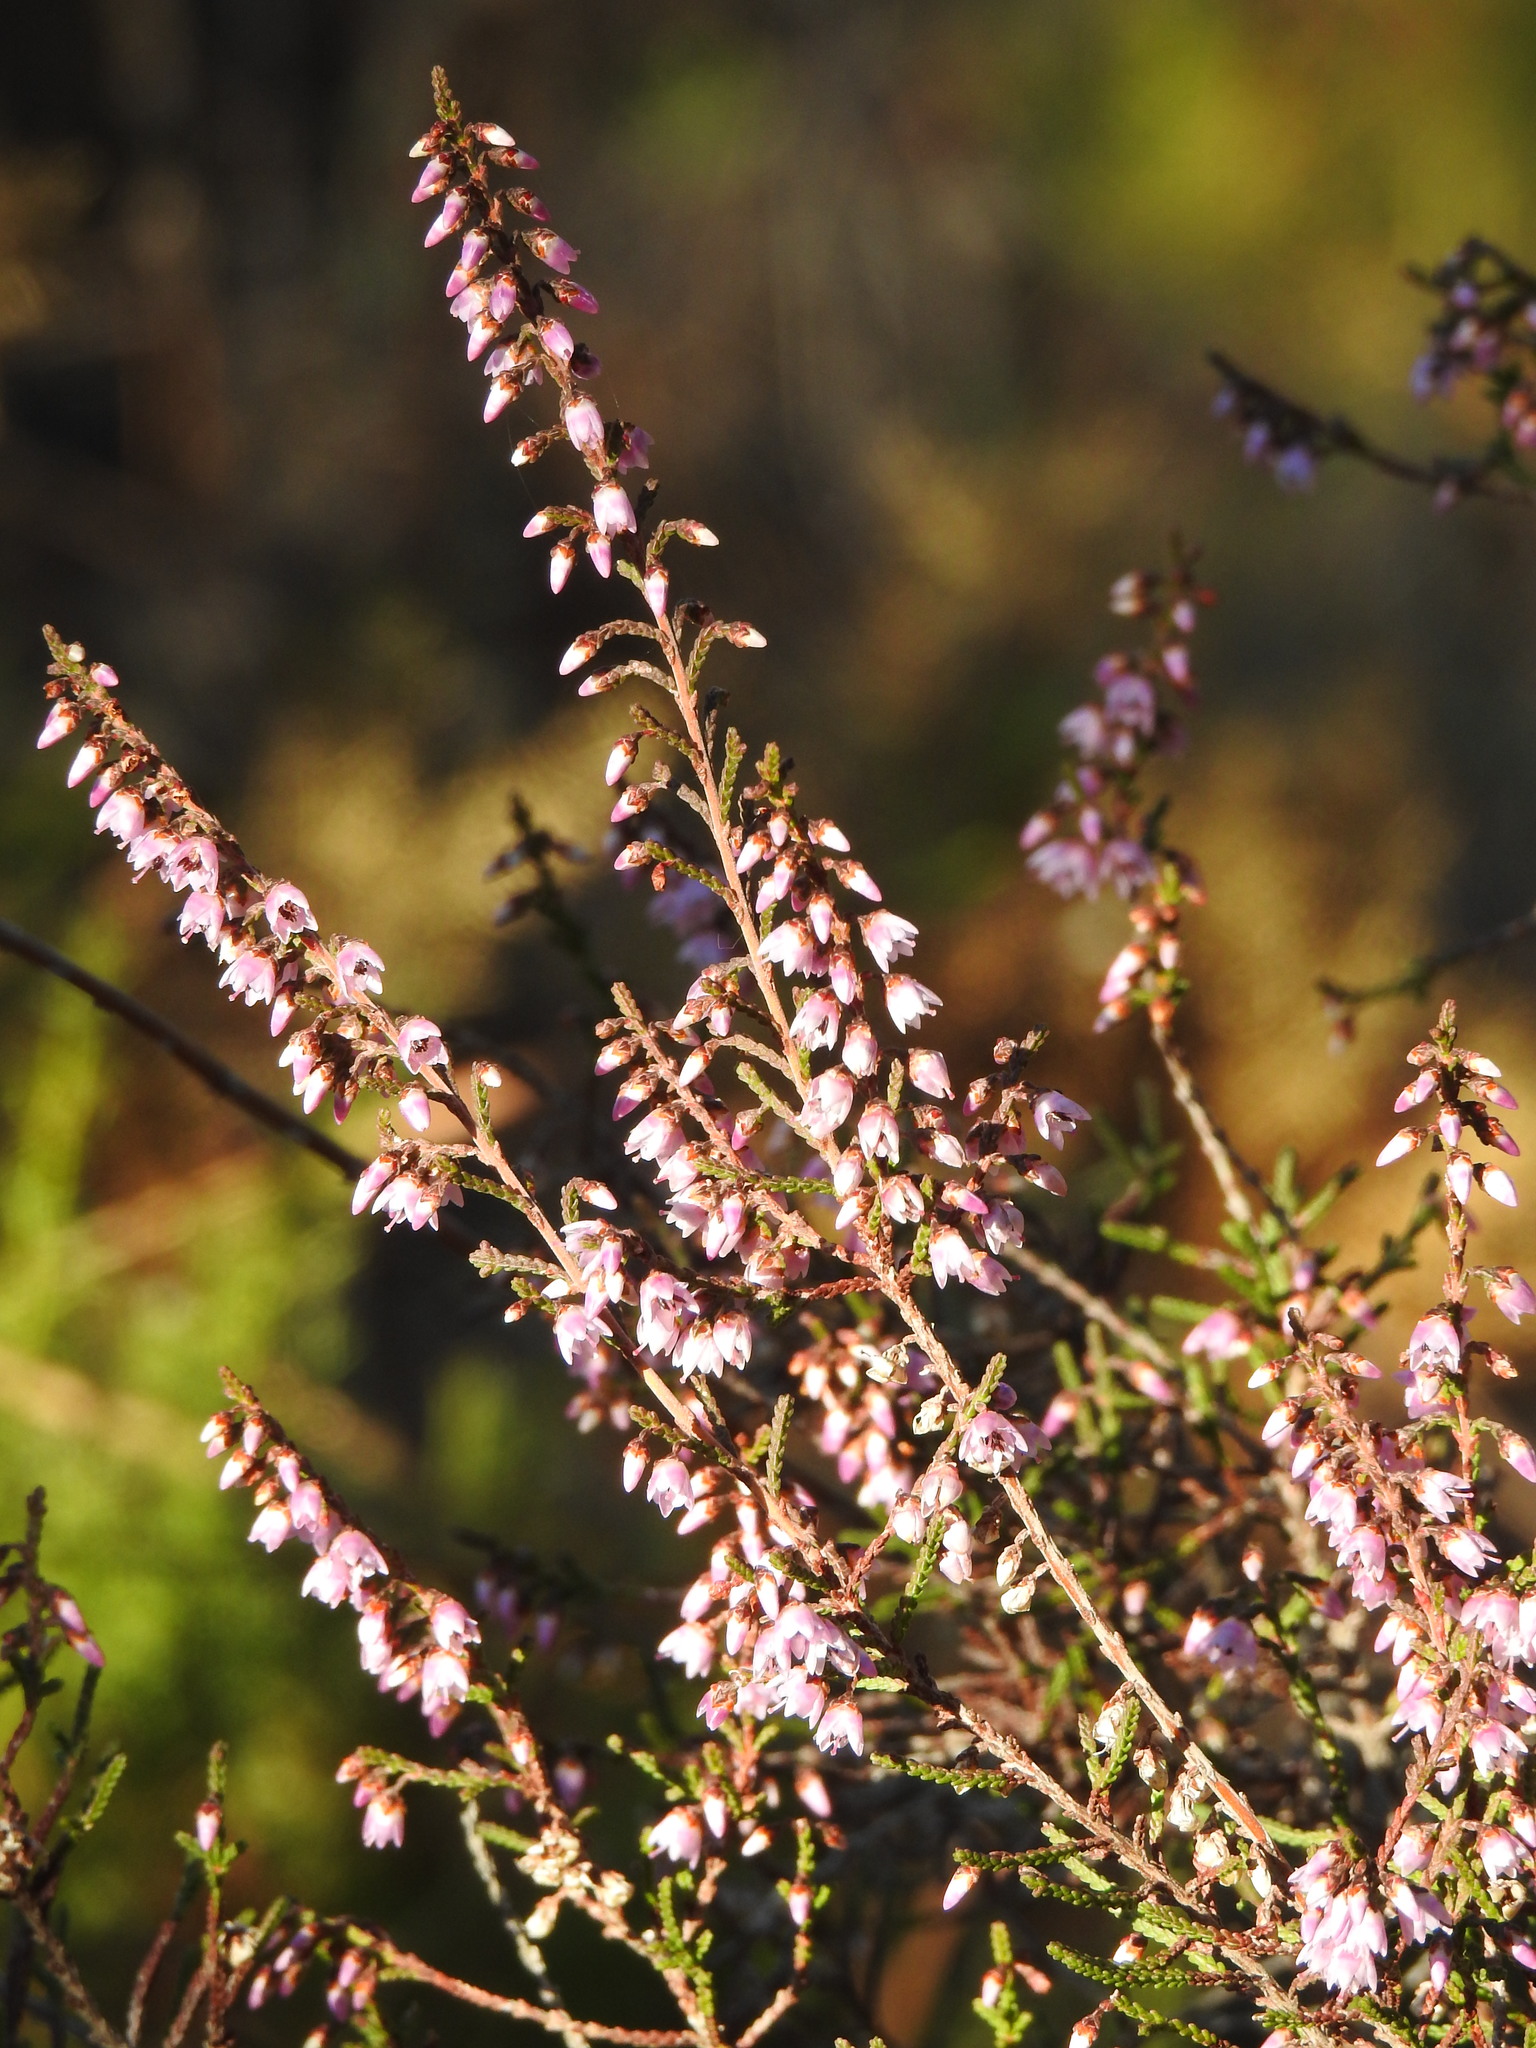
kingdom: Plantae
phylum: Tracheophyta
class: Magnoliopsida
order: Ericales
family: Ericaceae
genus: Calluna
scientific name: Calluna vulgaris
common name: Heather
